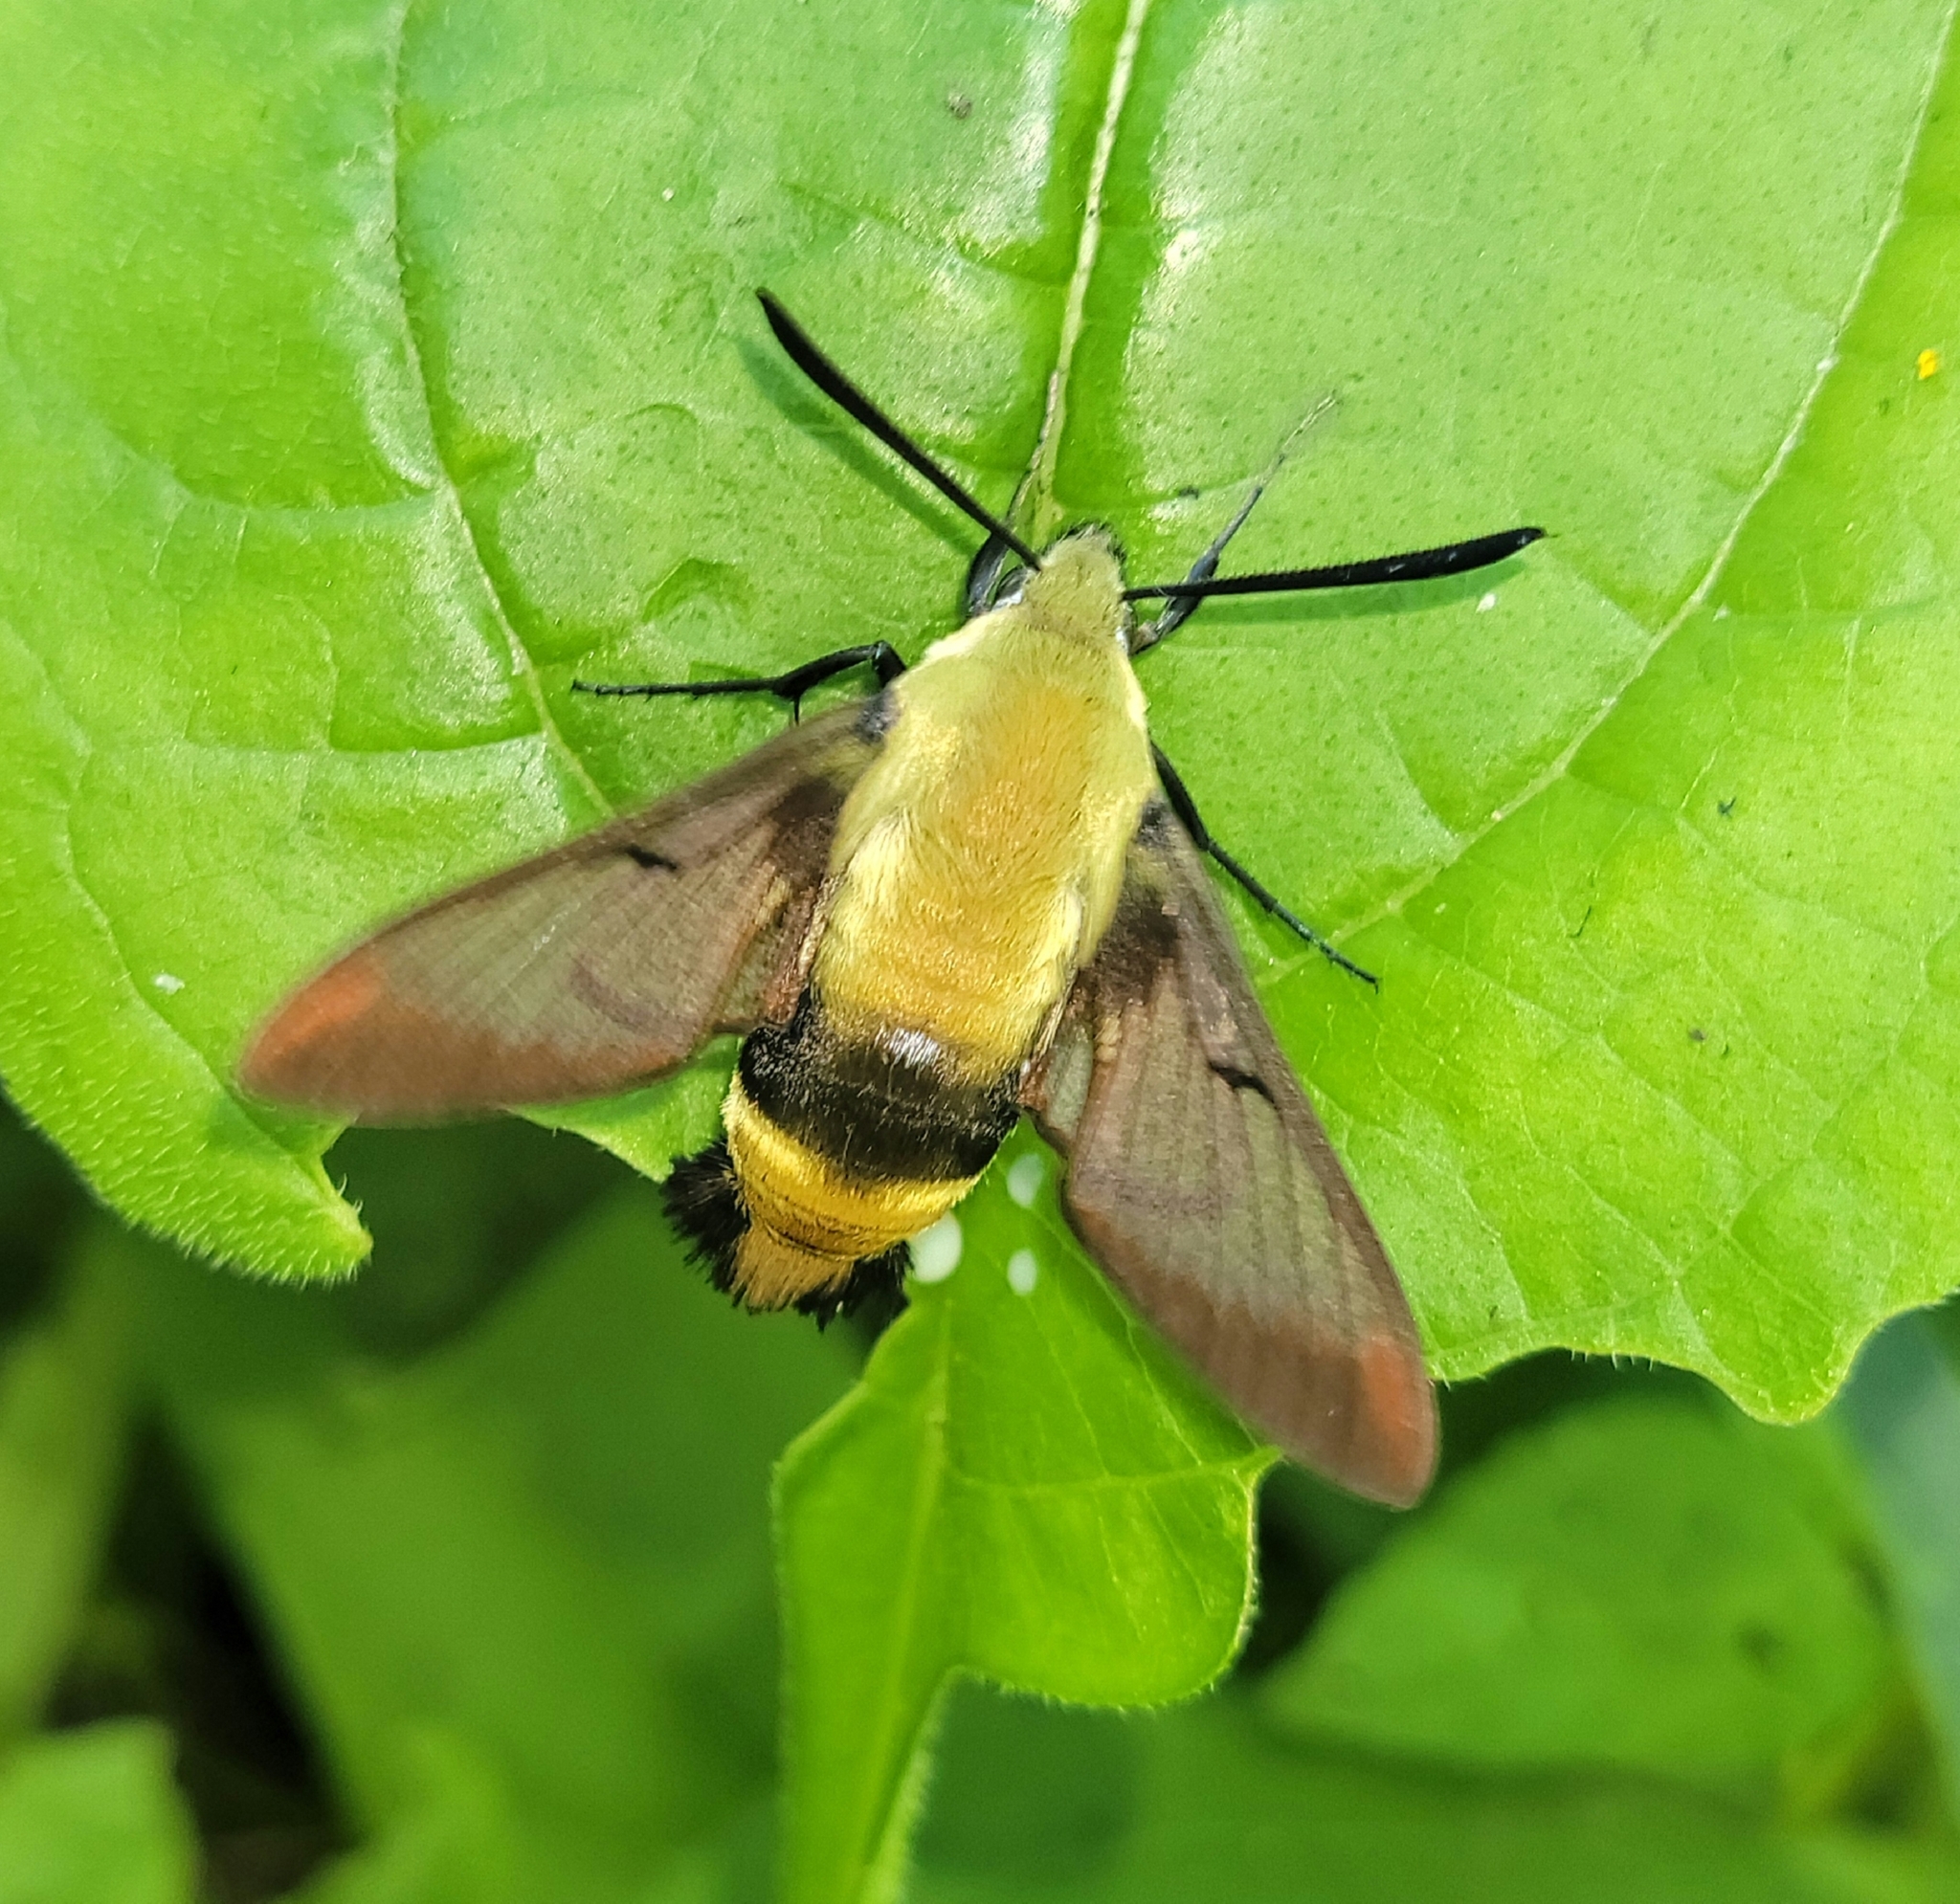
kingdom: Animalia
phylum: Arthropoda
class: Insecta
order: Lepidoptera
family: Sphingidae
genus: Hemaris
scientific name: Hemaris diffinis
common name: Bumblebee moth
